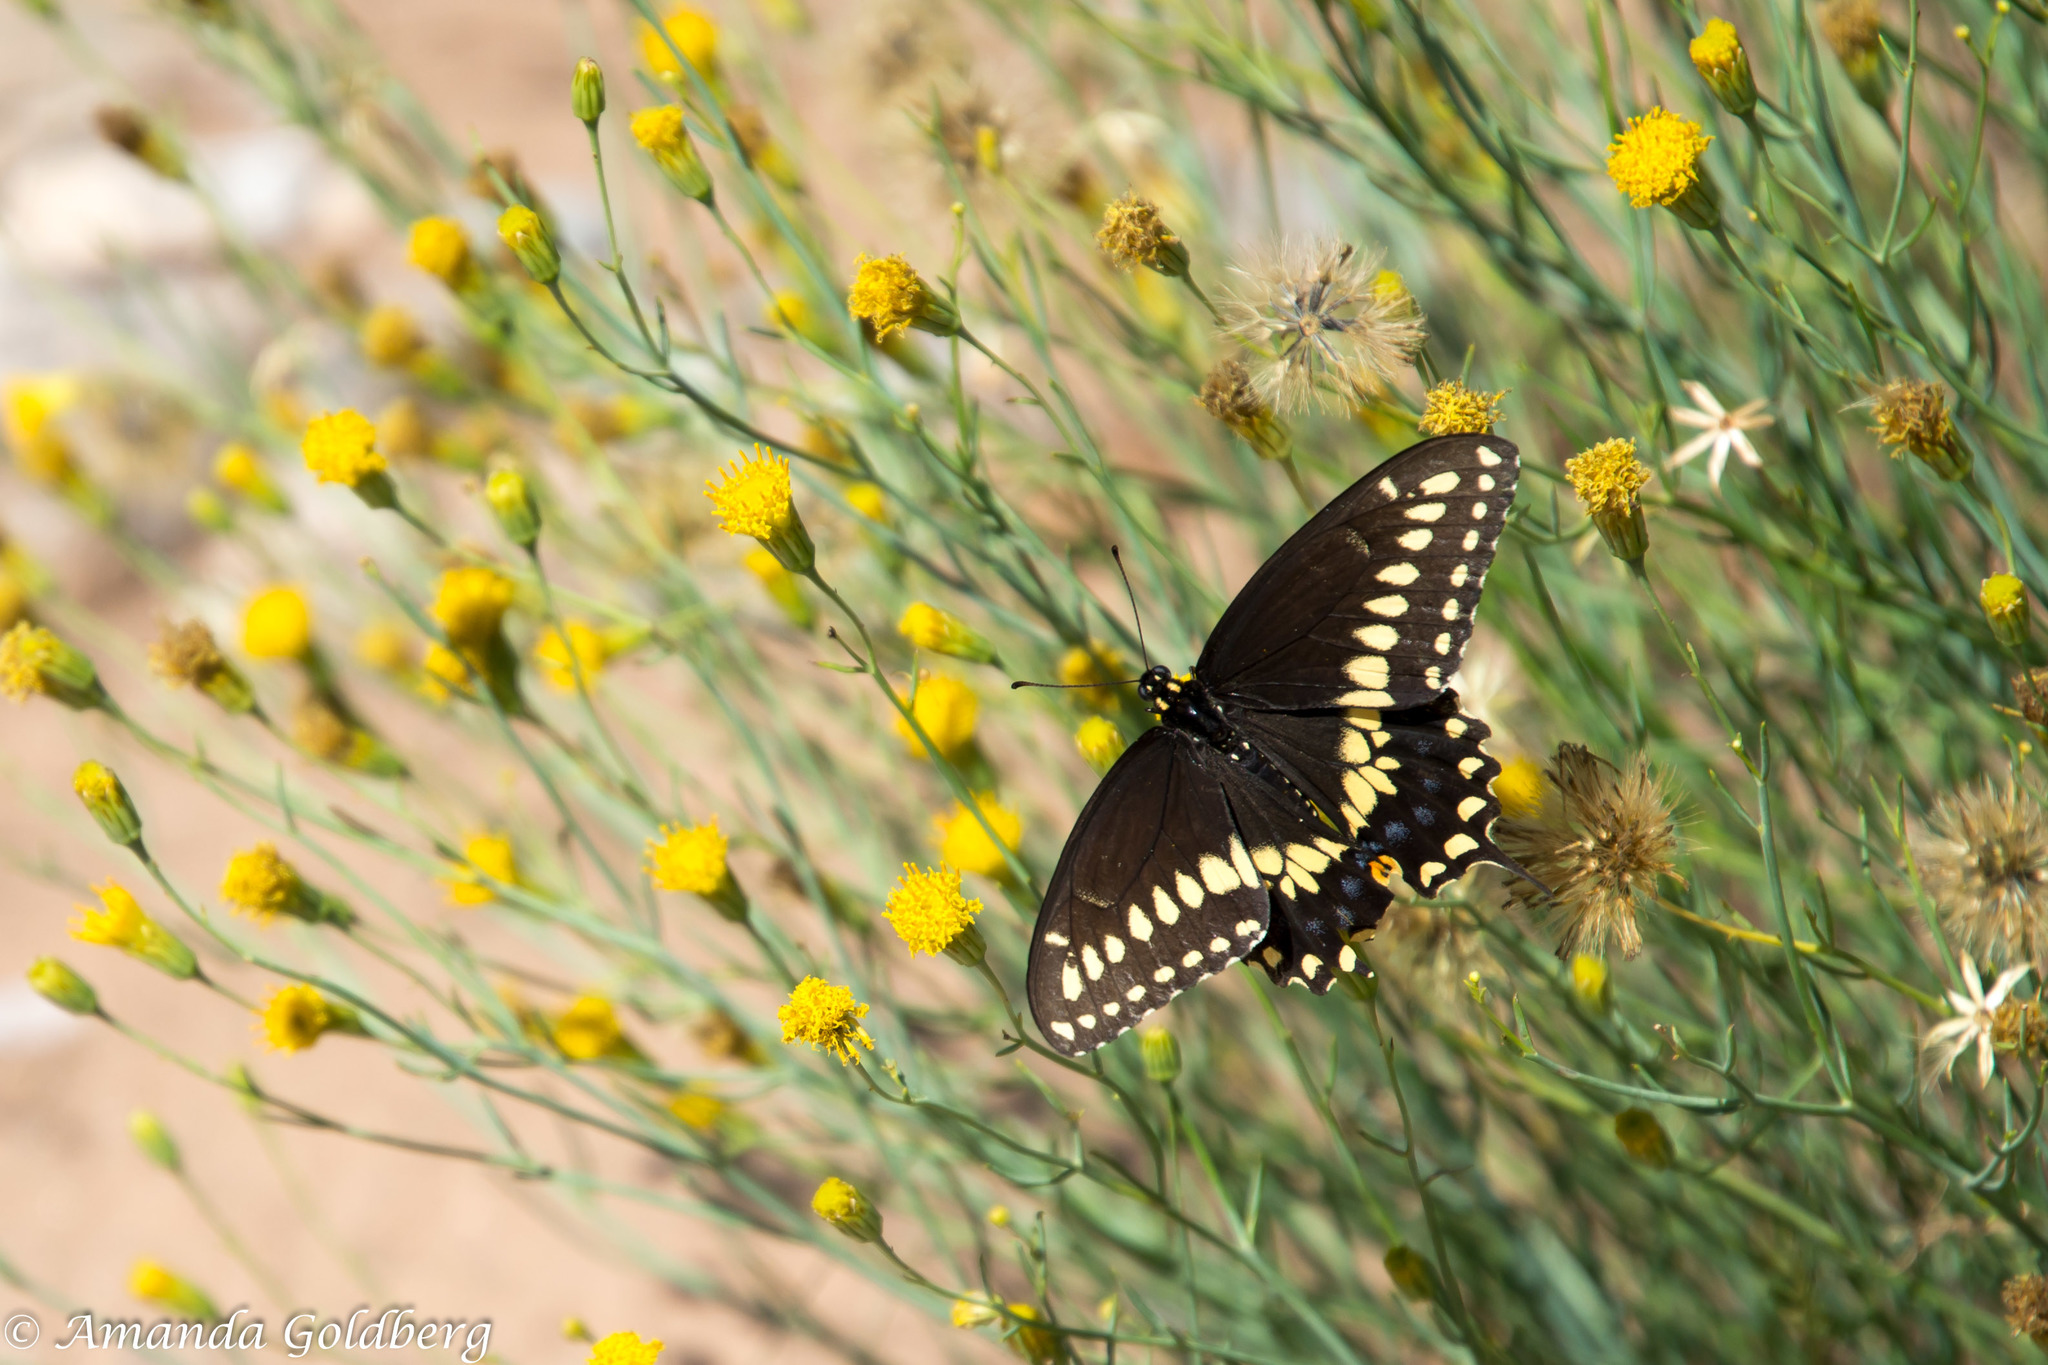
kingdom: Animalia
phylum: Arthropoda
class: Insecta
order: Lepidoptera
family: Papilionidae
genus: Papilio
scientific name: Papilio polyxenes
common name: Black swallowtail
